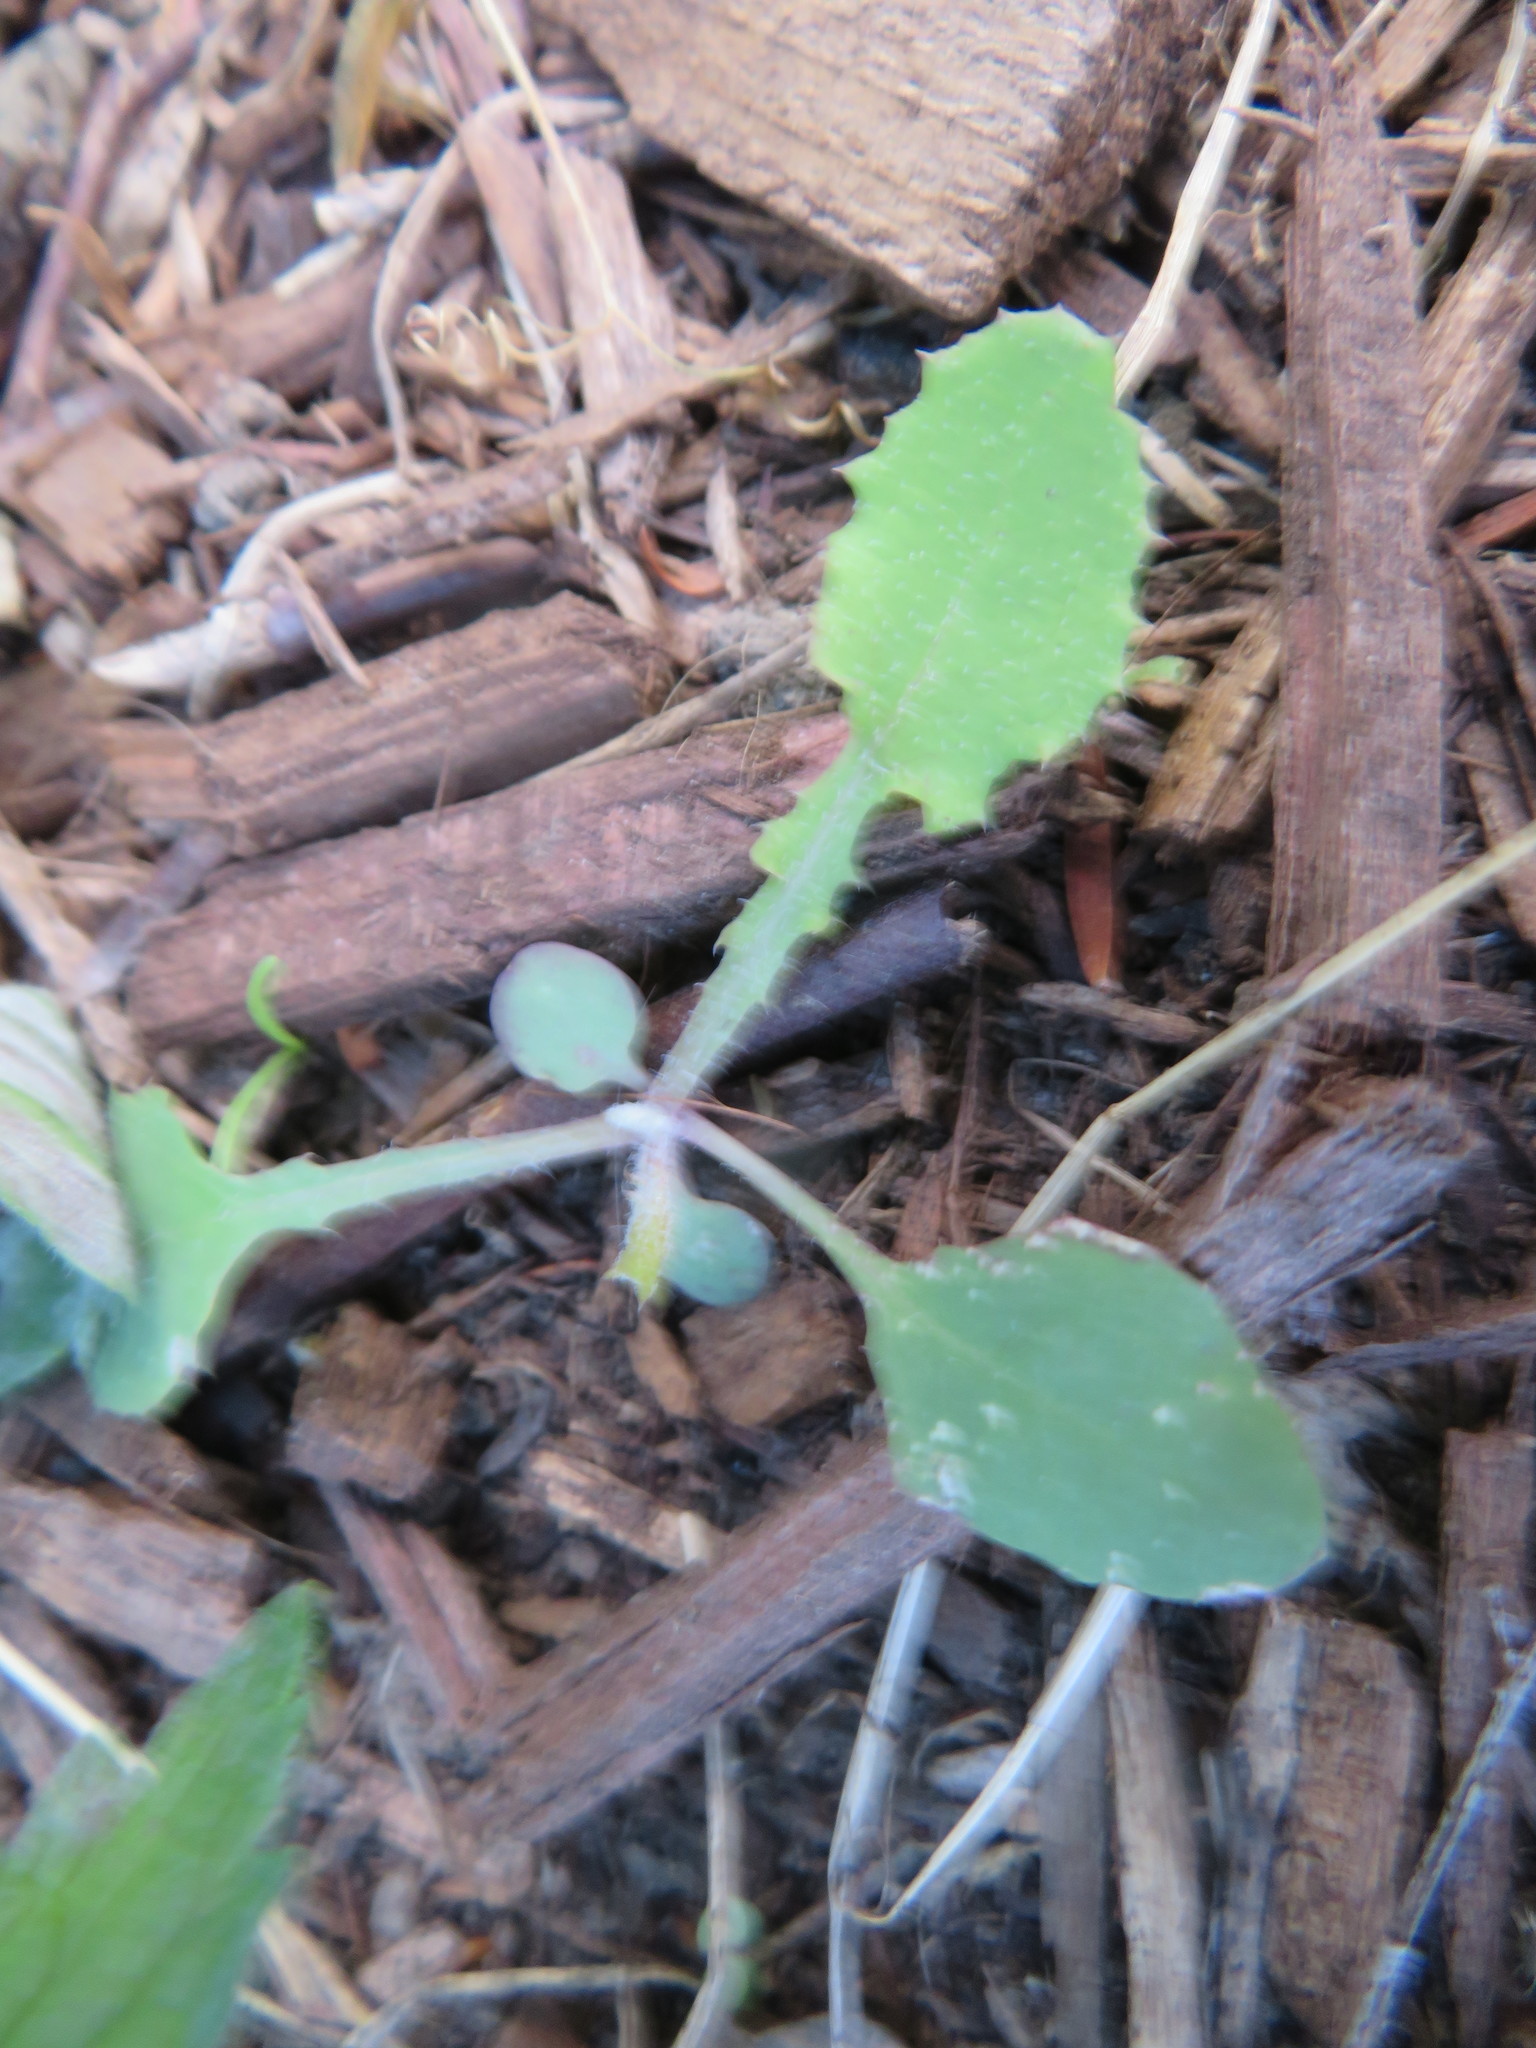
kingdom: Plantae
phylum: Tracheophyta
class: Magnoliopsida
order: Asterales
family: Asteraceae
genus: Sonchus
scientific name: Sonchus oleraceus
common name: Common sowthistle
